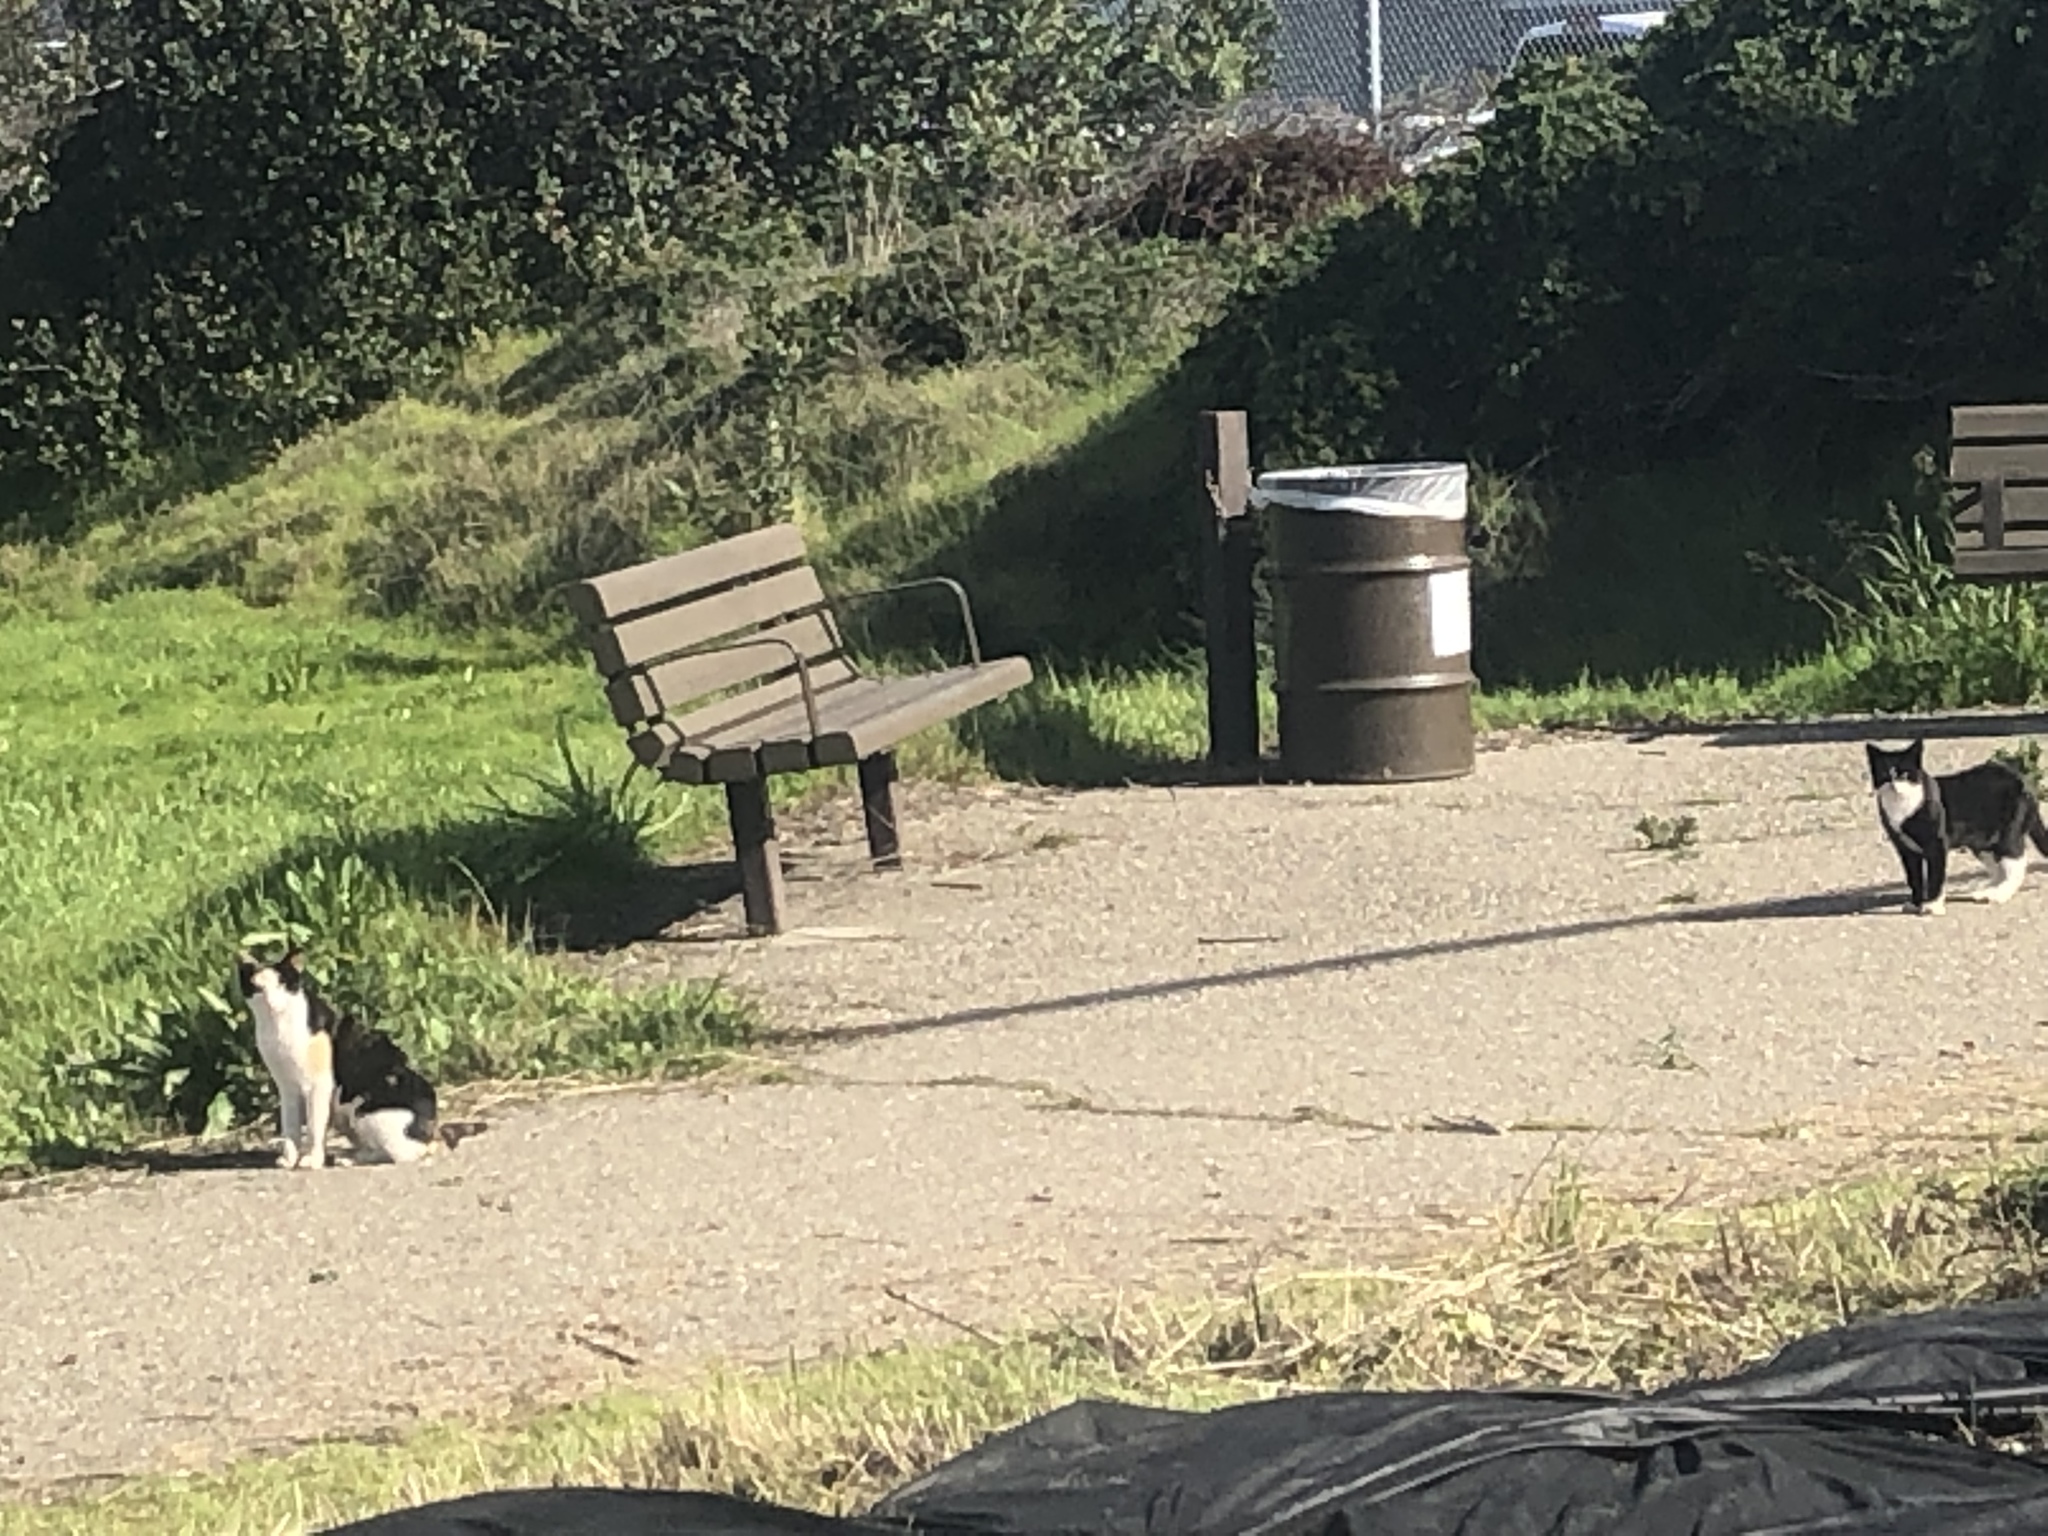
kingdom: Animalia
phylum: Chordata
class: Mammalia
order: Carnivora
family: Felidae
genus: Felis
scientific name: Felis catus
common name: Domestic cat
